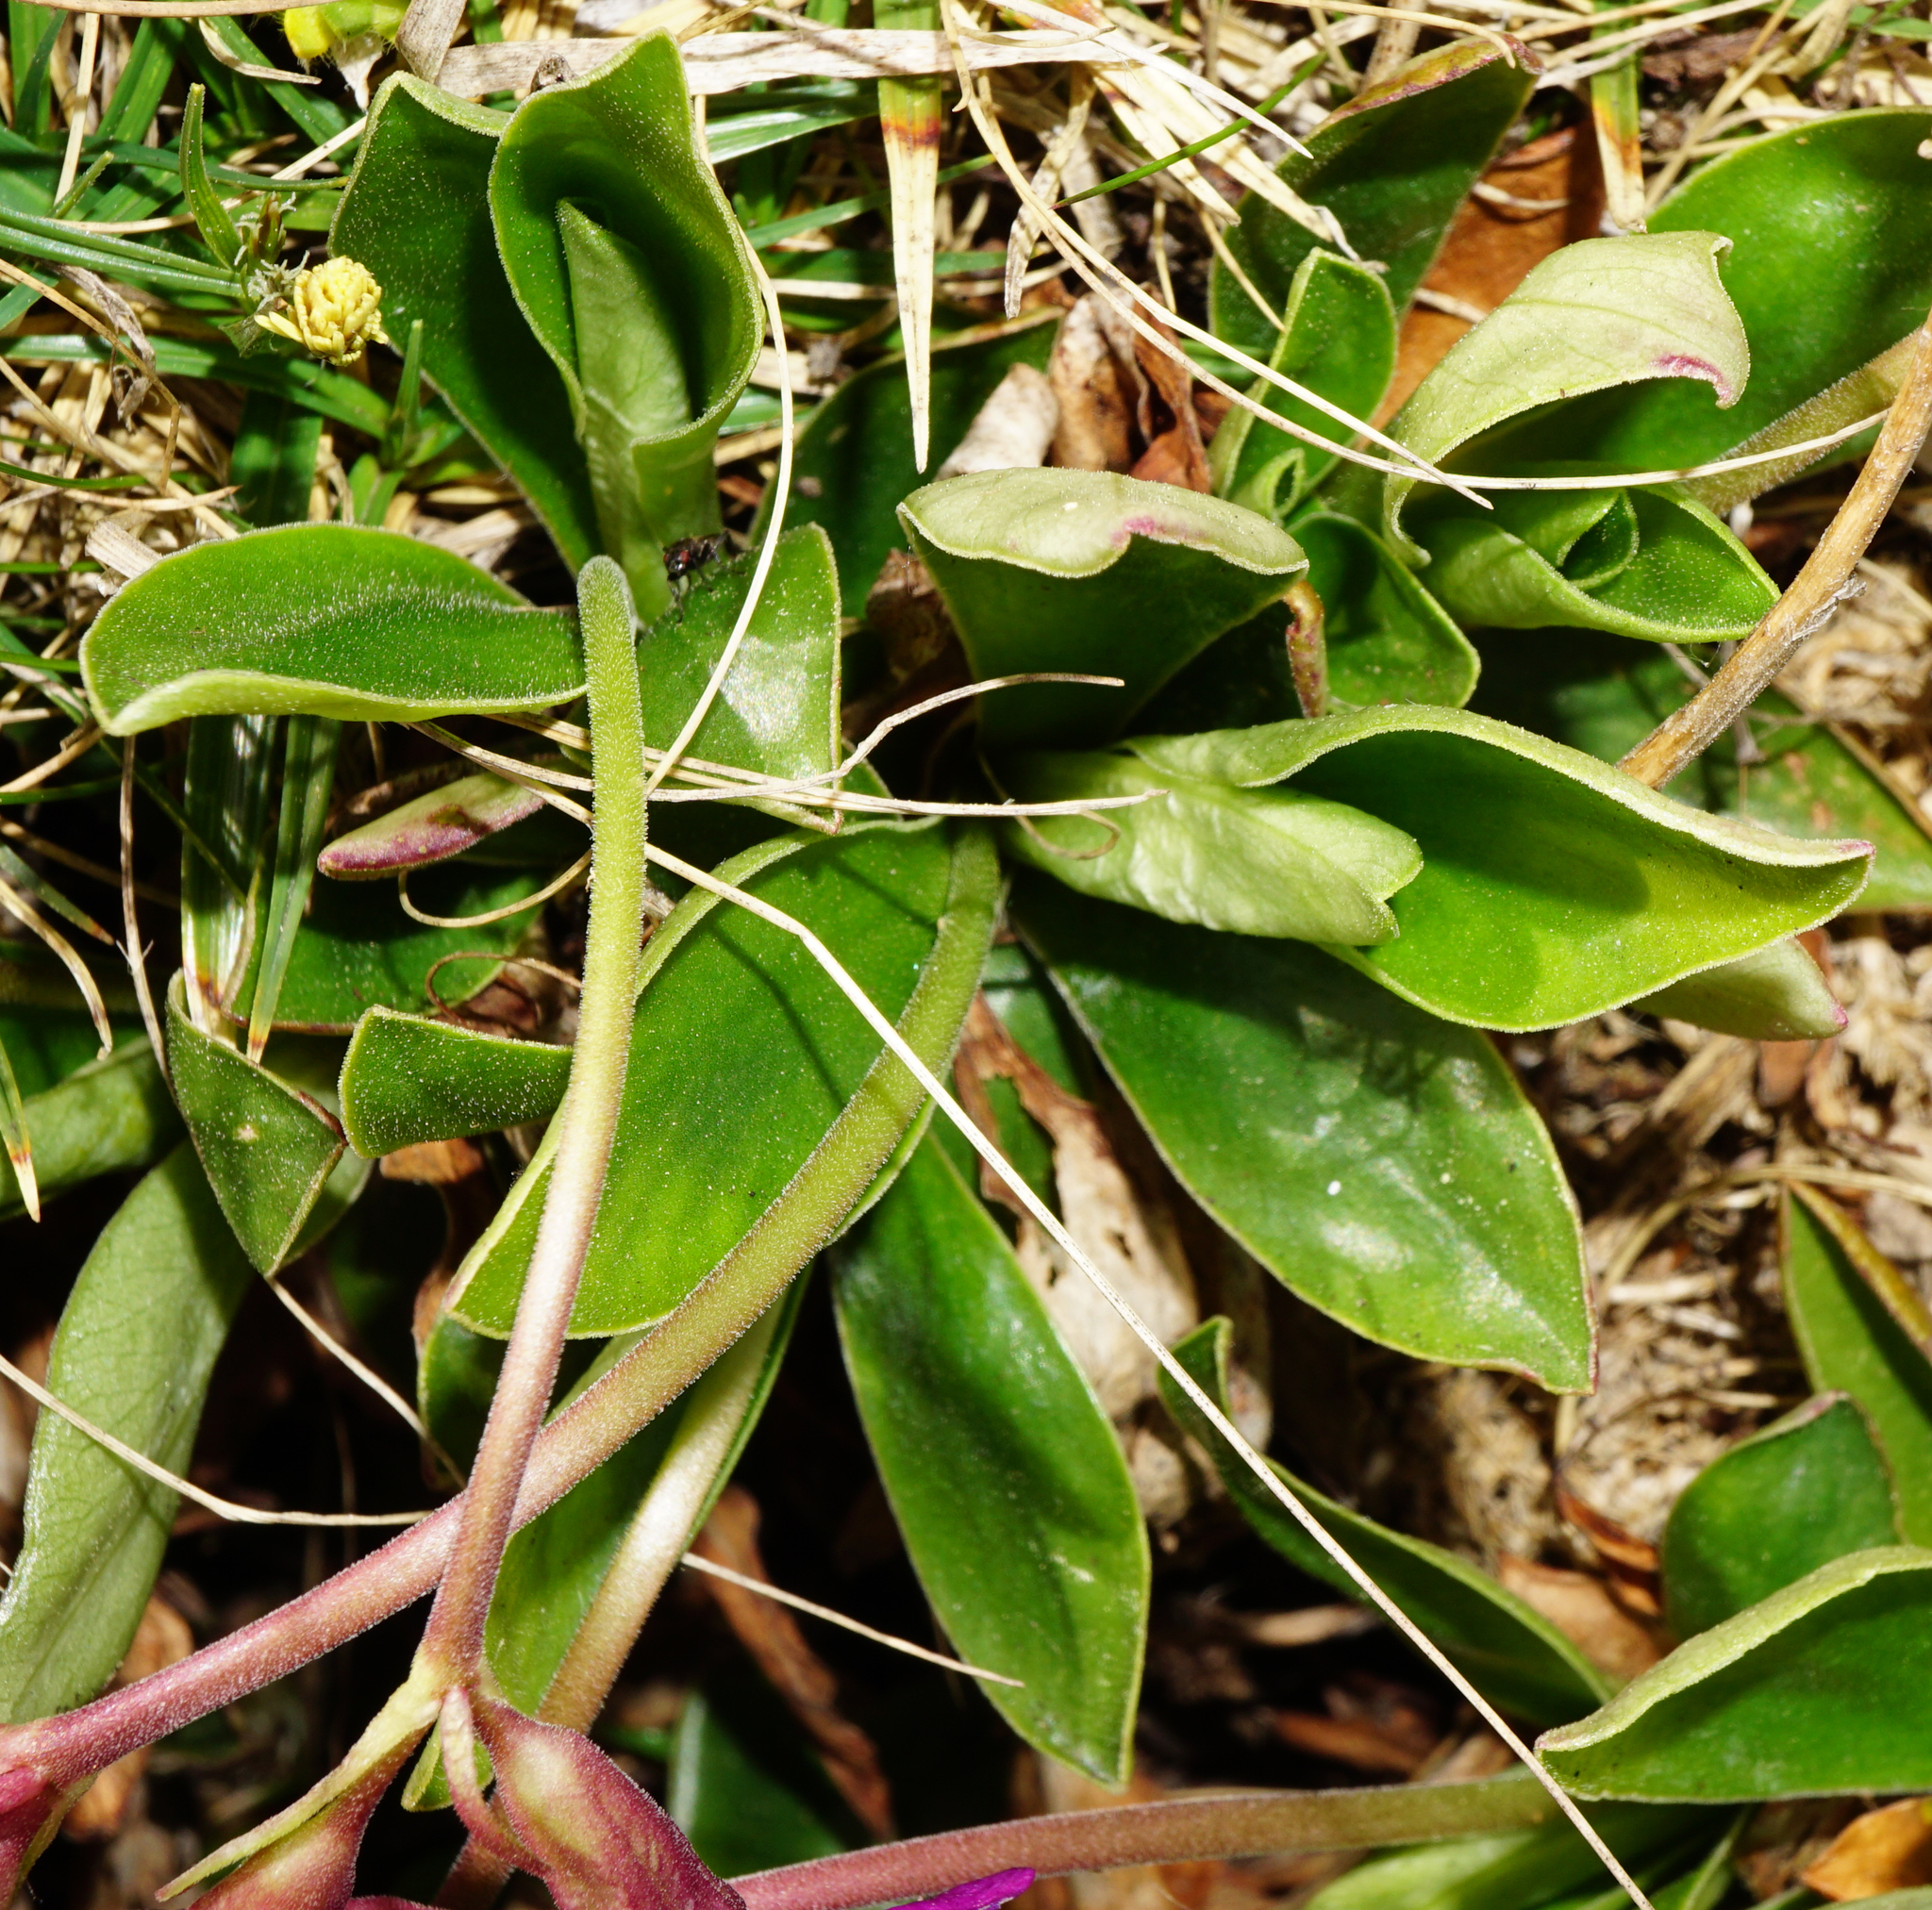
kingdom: Plantae
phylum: Tracheophyta
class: Magnoliopsida
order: Ericales
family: Primulaceae
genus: Primula
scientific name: Primula clusiana
